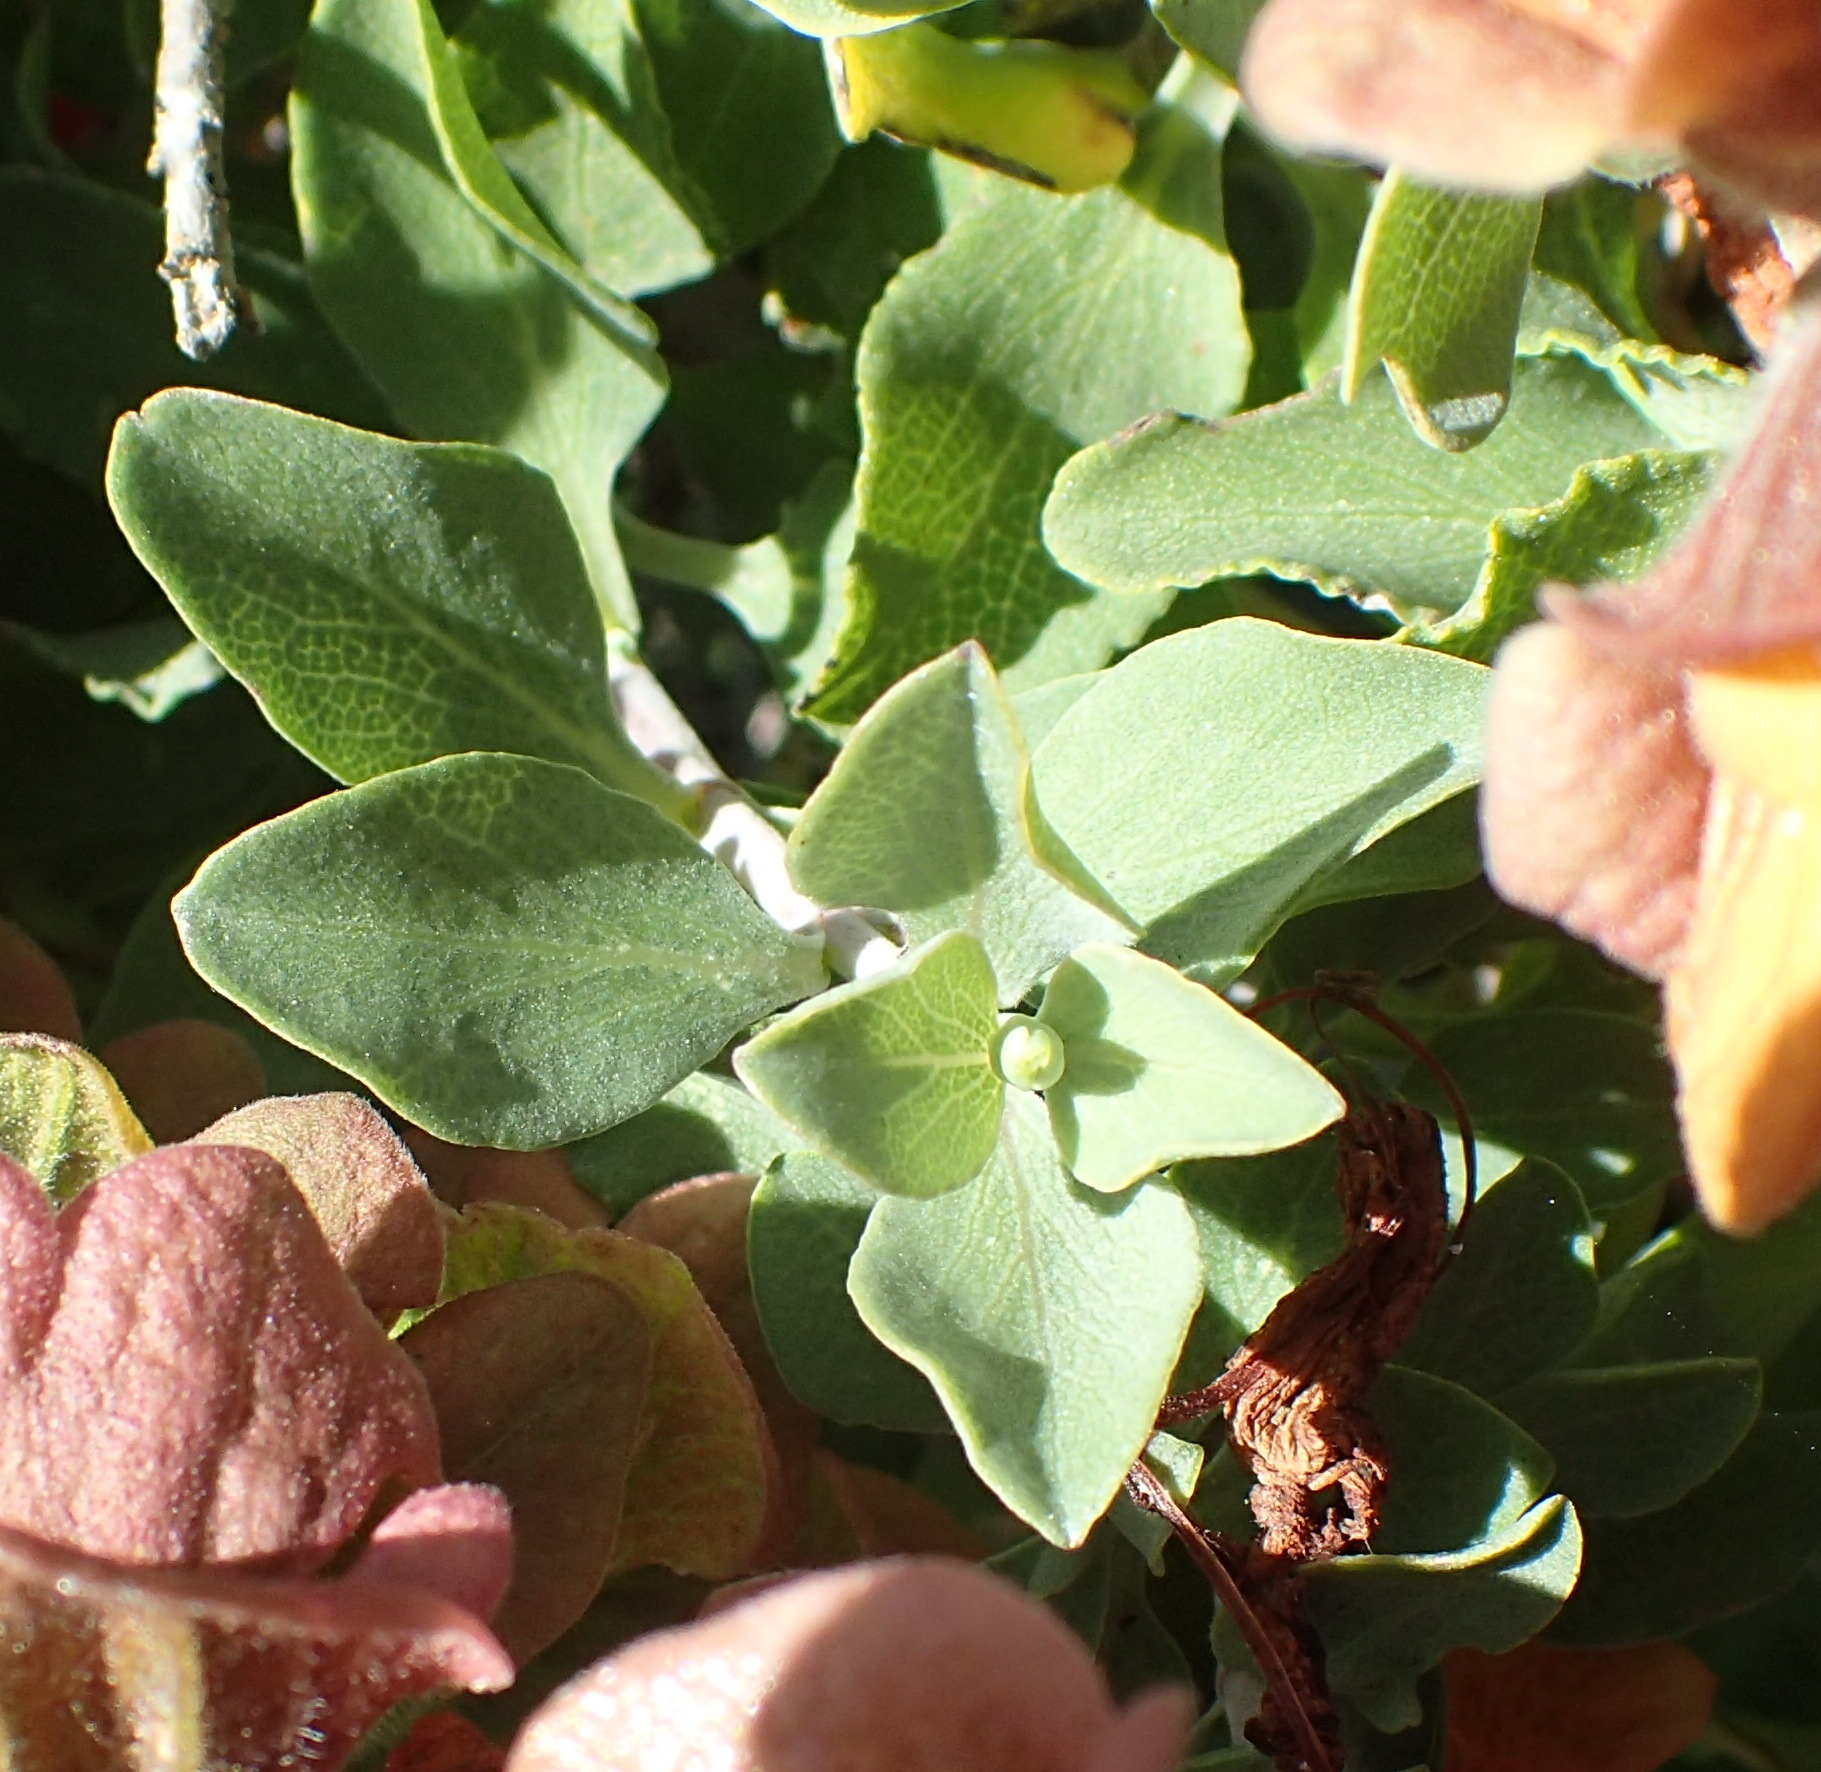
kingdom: Plantae
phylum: Tracheophyta
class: Magnoliopsida
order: Lamiales
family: Lamiaceae
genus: Salvia
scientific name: Salvia aurea
